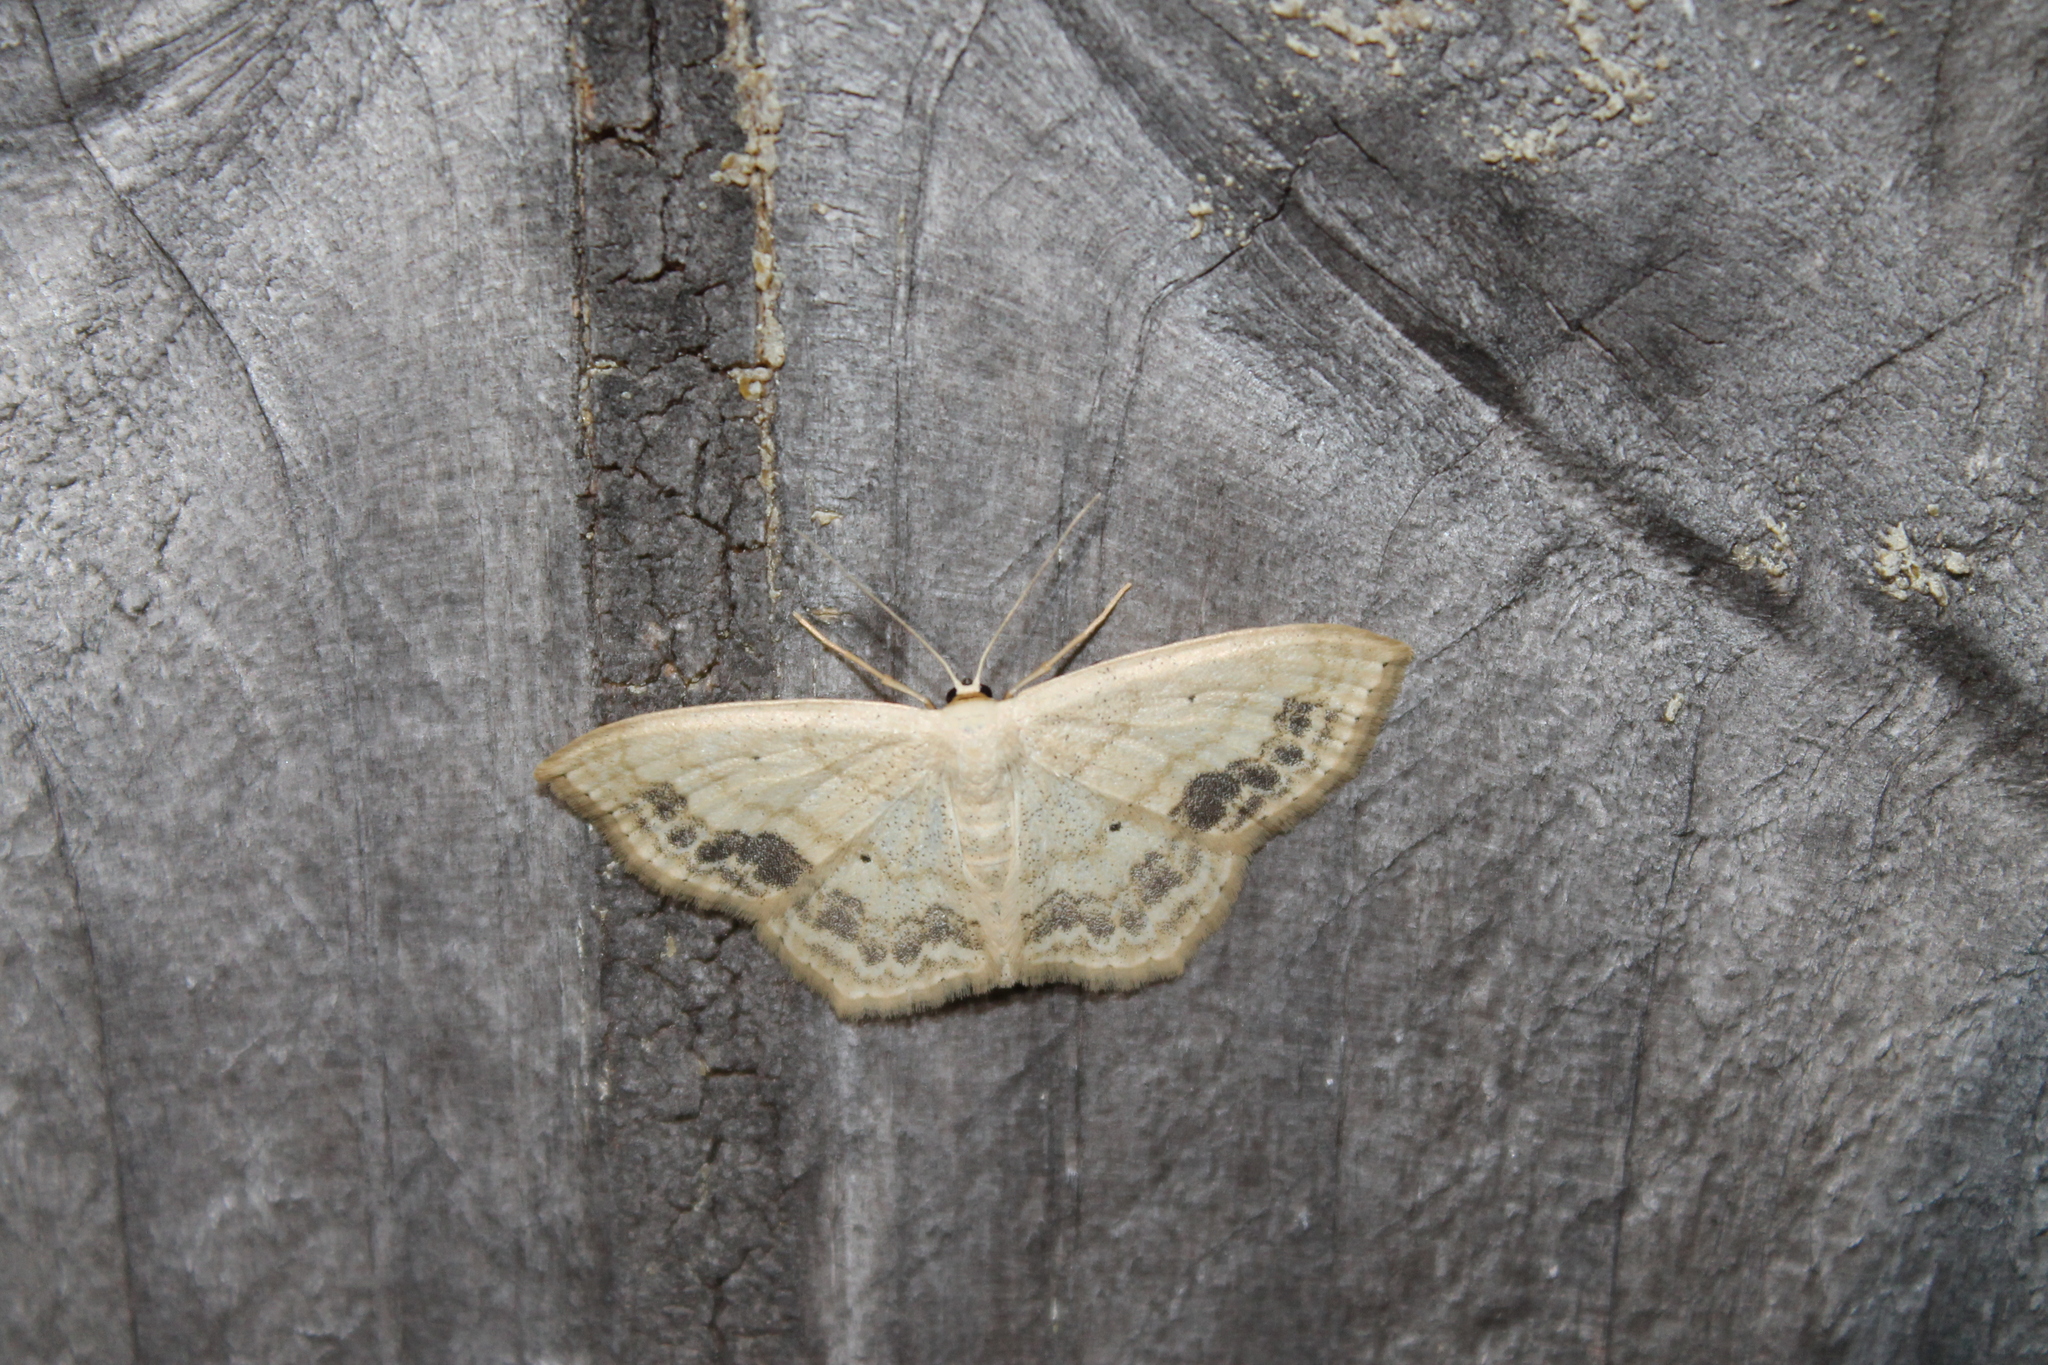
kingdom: Animalia
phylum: Arthropoda
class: Insecta
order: Lepidoptera
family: Geometridae
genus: Scopula
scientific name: Scopula limboundata
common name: Large lace border
